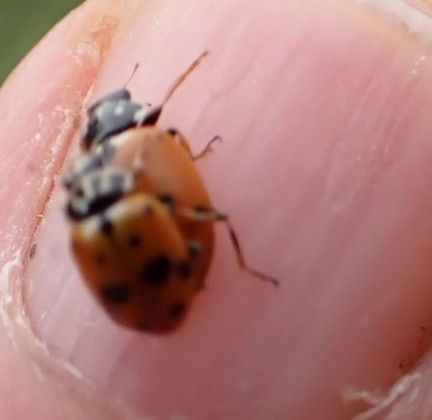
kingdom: Animalia
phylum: Arthropoda
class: Insecta
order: Coleoptera
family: Coccinellidae
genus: Hippodamia
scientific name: Hippodamia variegata
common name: Ladybird beetle
